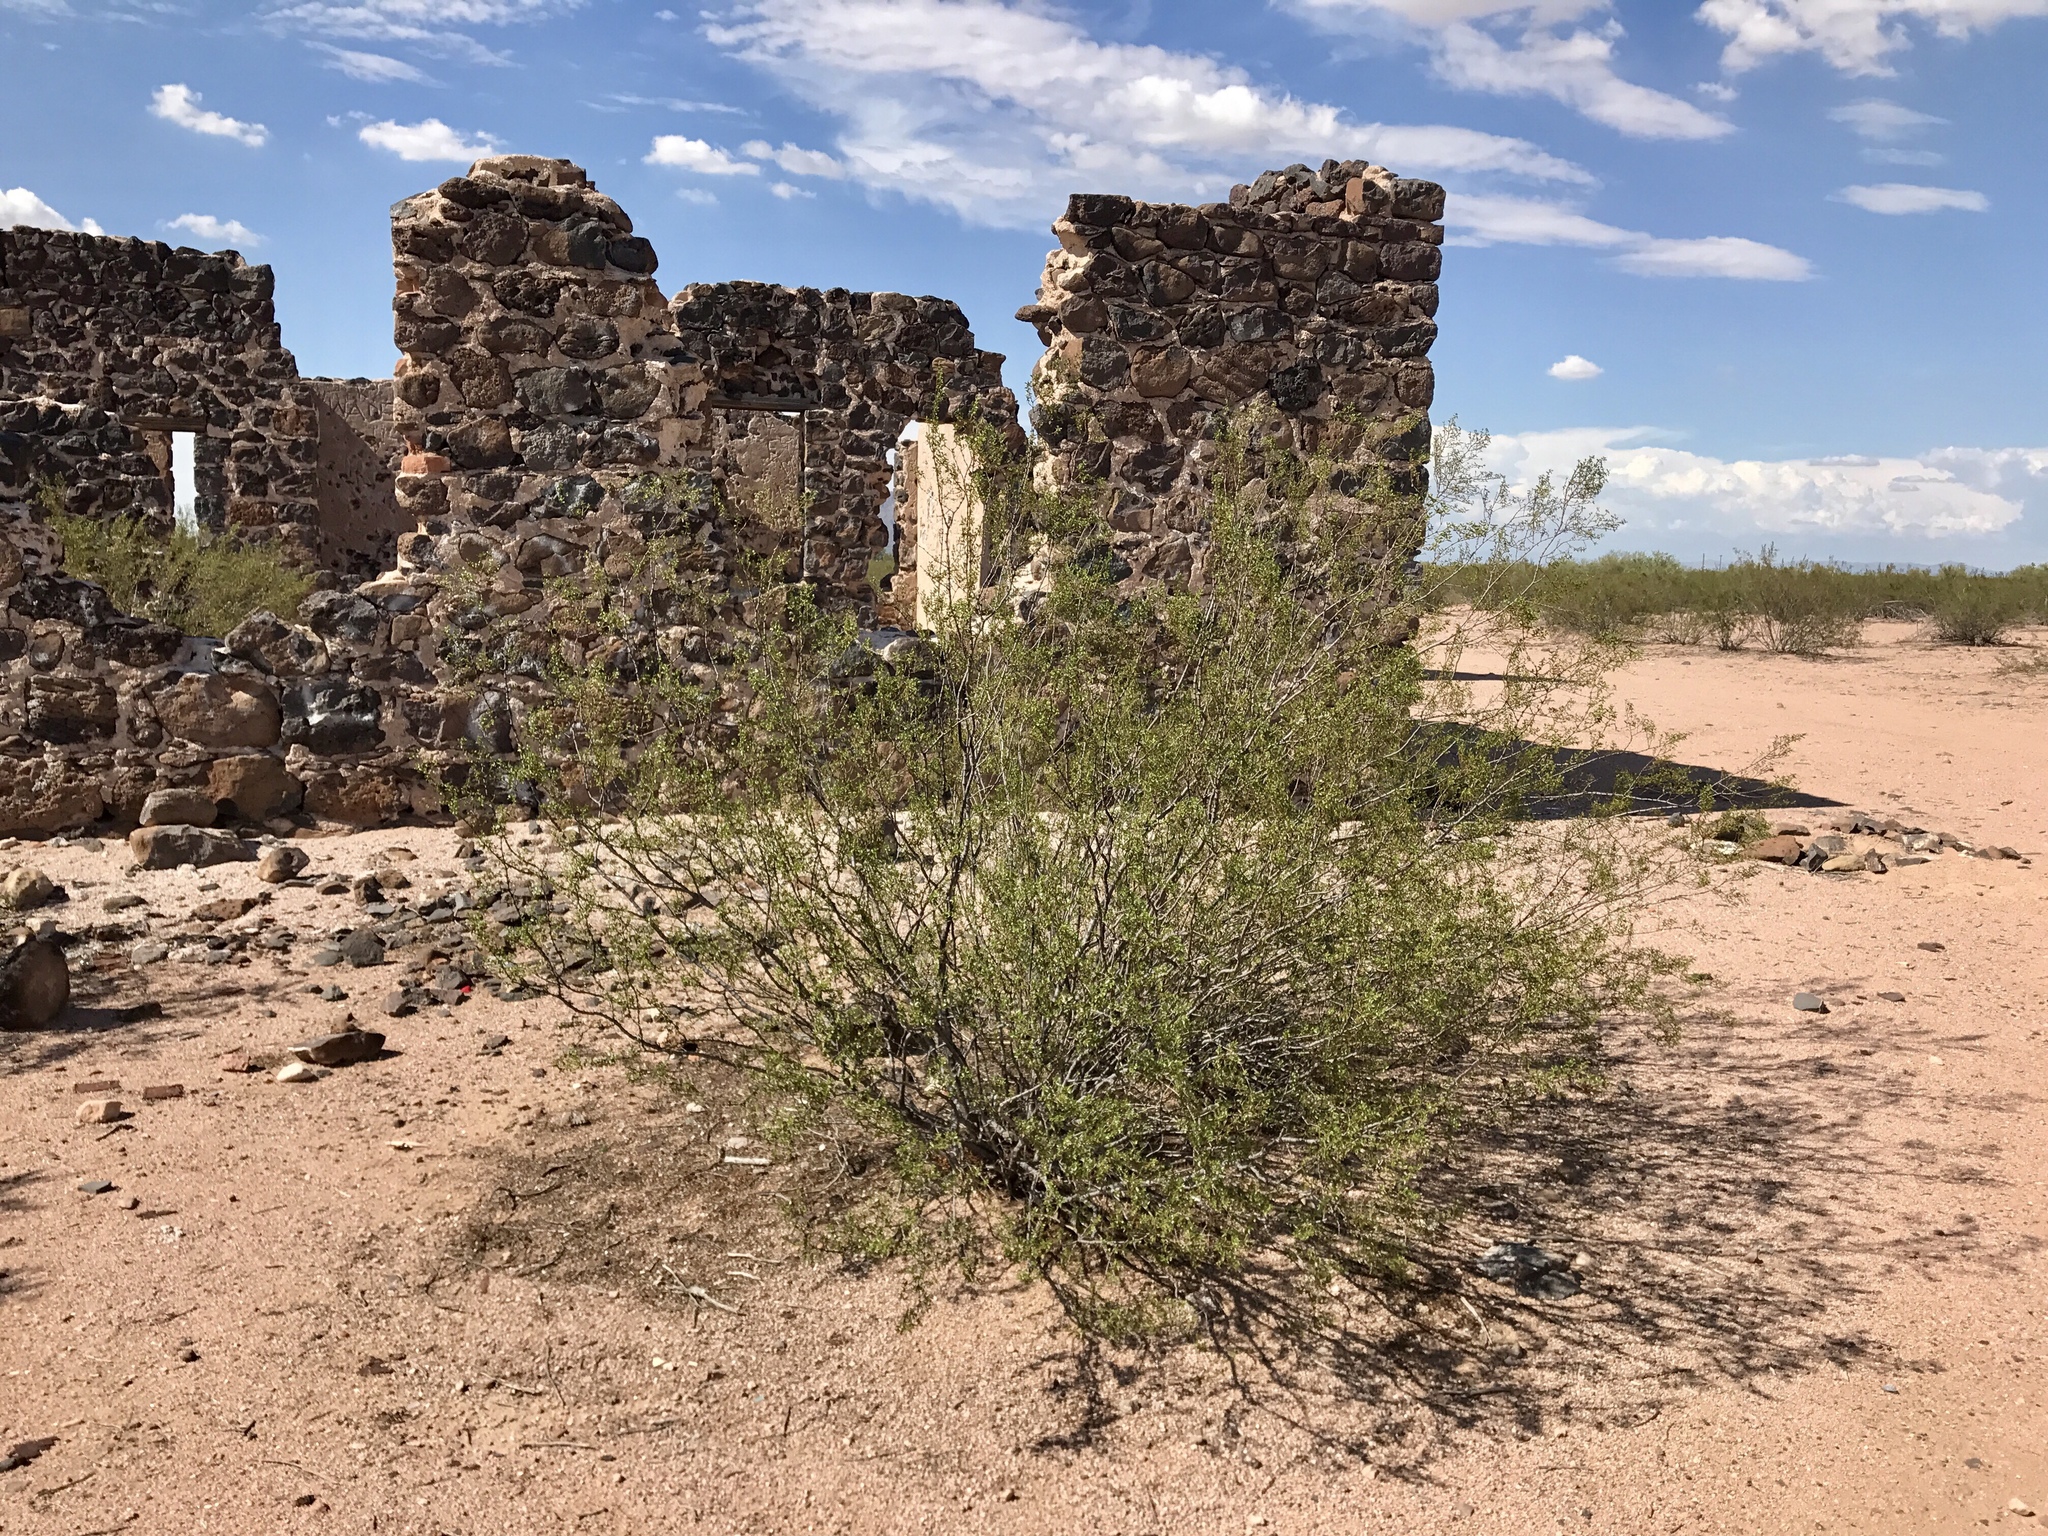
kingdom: Plantae
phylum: Tracheophyta
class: Magnoliopsida
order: Zygophyllales
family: Zygophyllaceae
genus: Larrea
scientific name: Larrea tridentata
